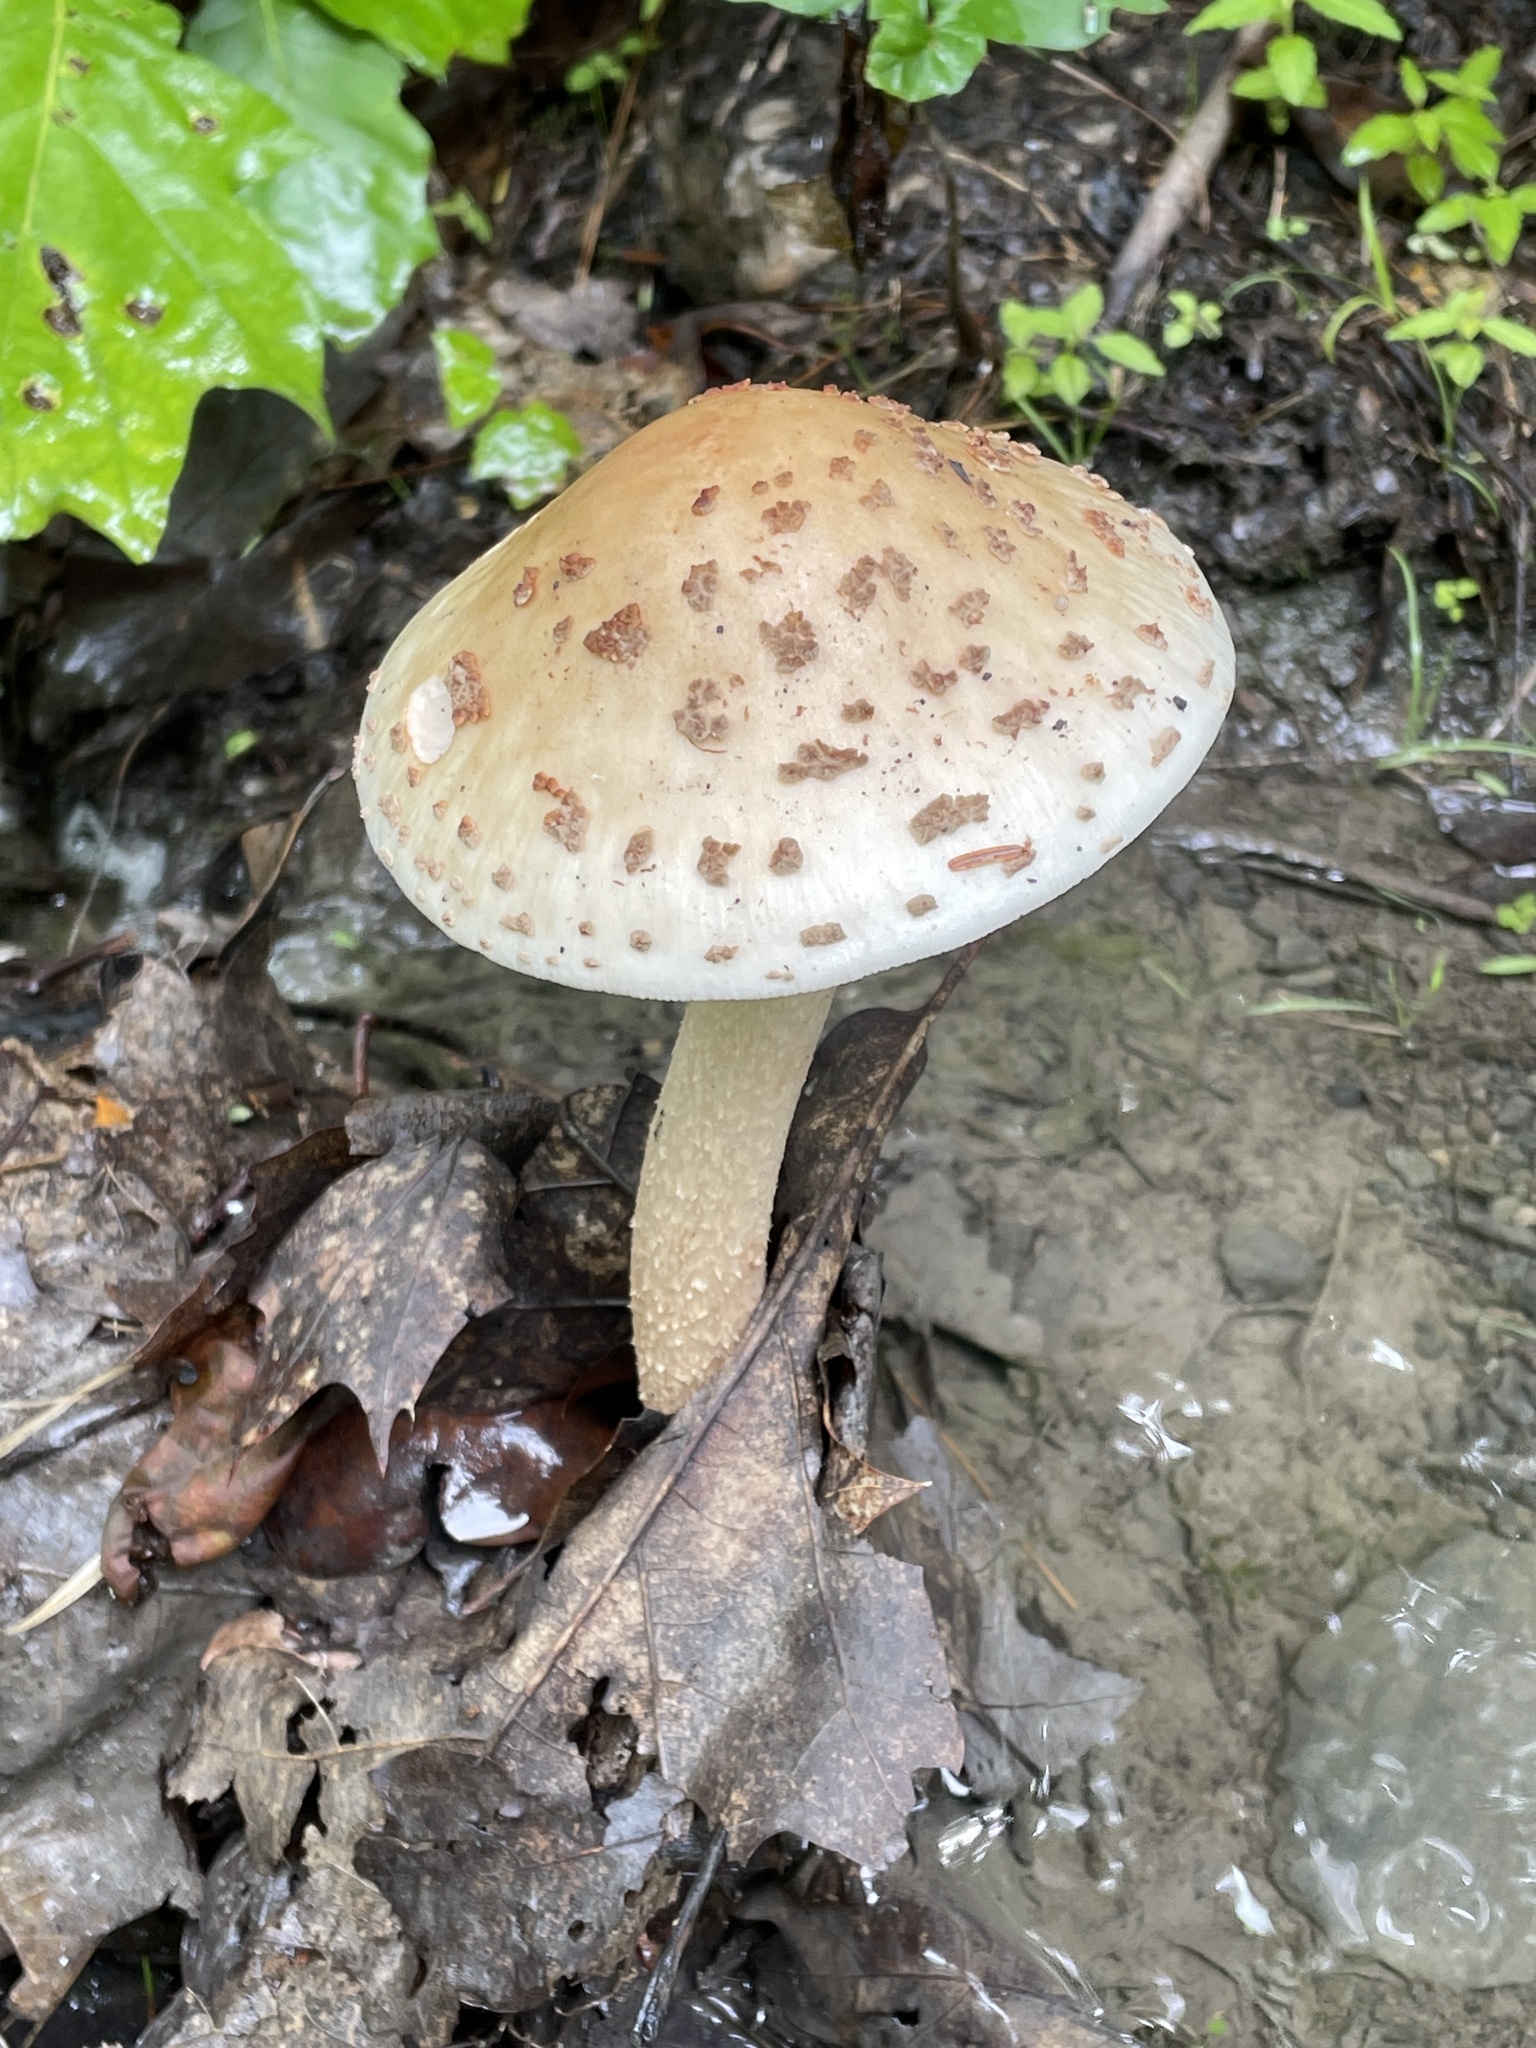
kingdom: Fungi
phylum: Basidiomycota
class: Agaricomycetes
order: Agaricales
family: Amanitaceae
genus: Amanita
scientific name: Amanita rubescens
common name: Blusher
